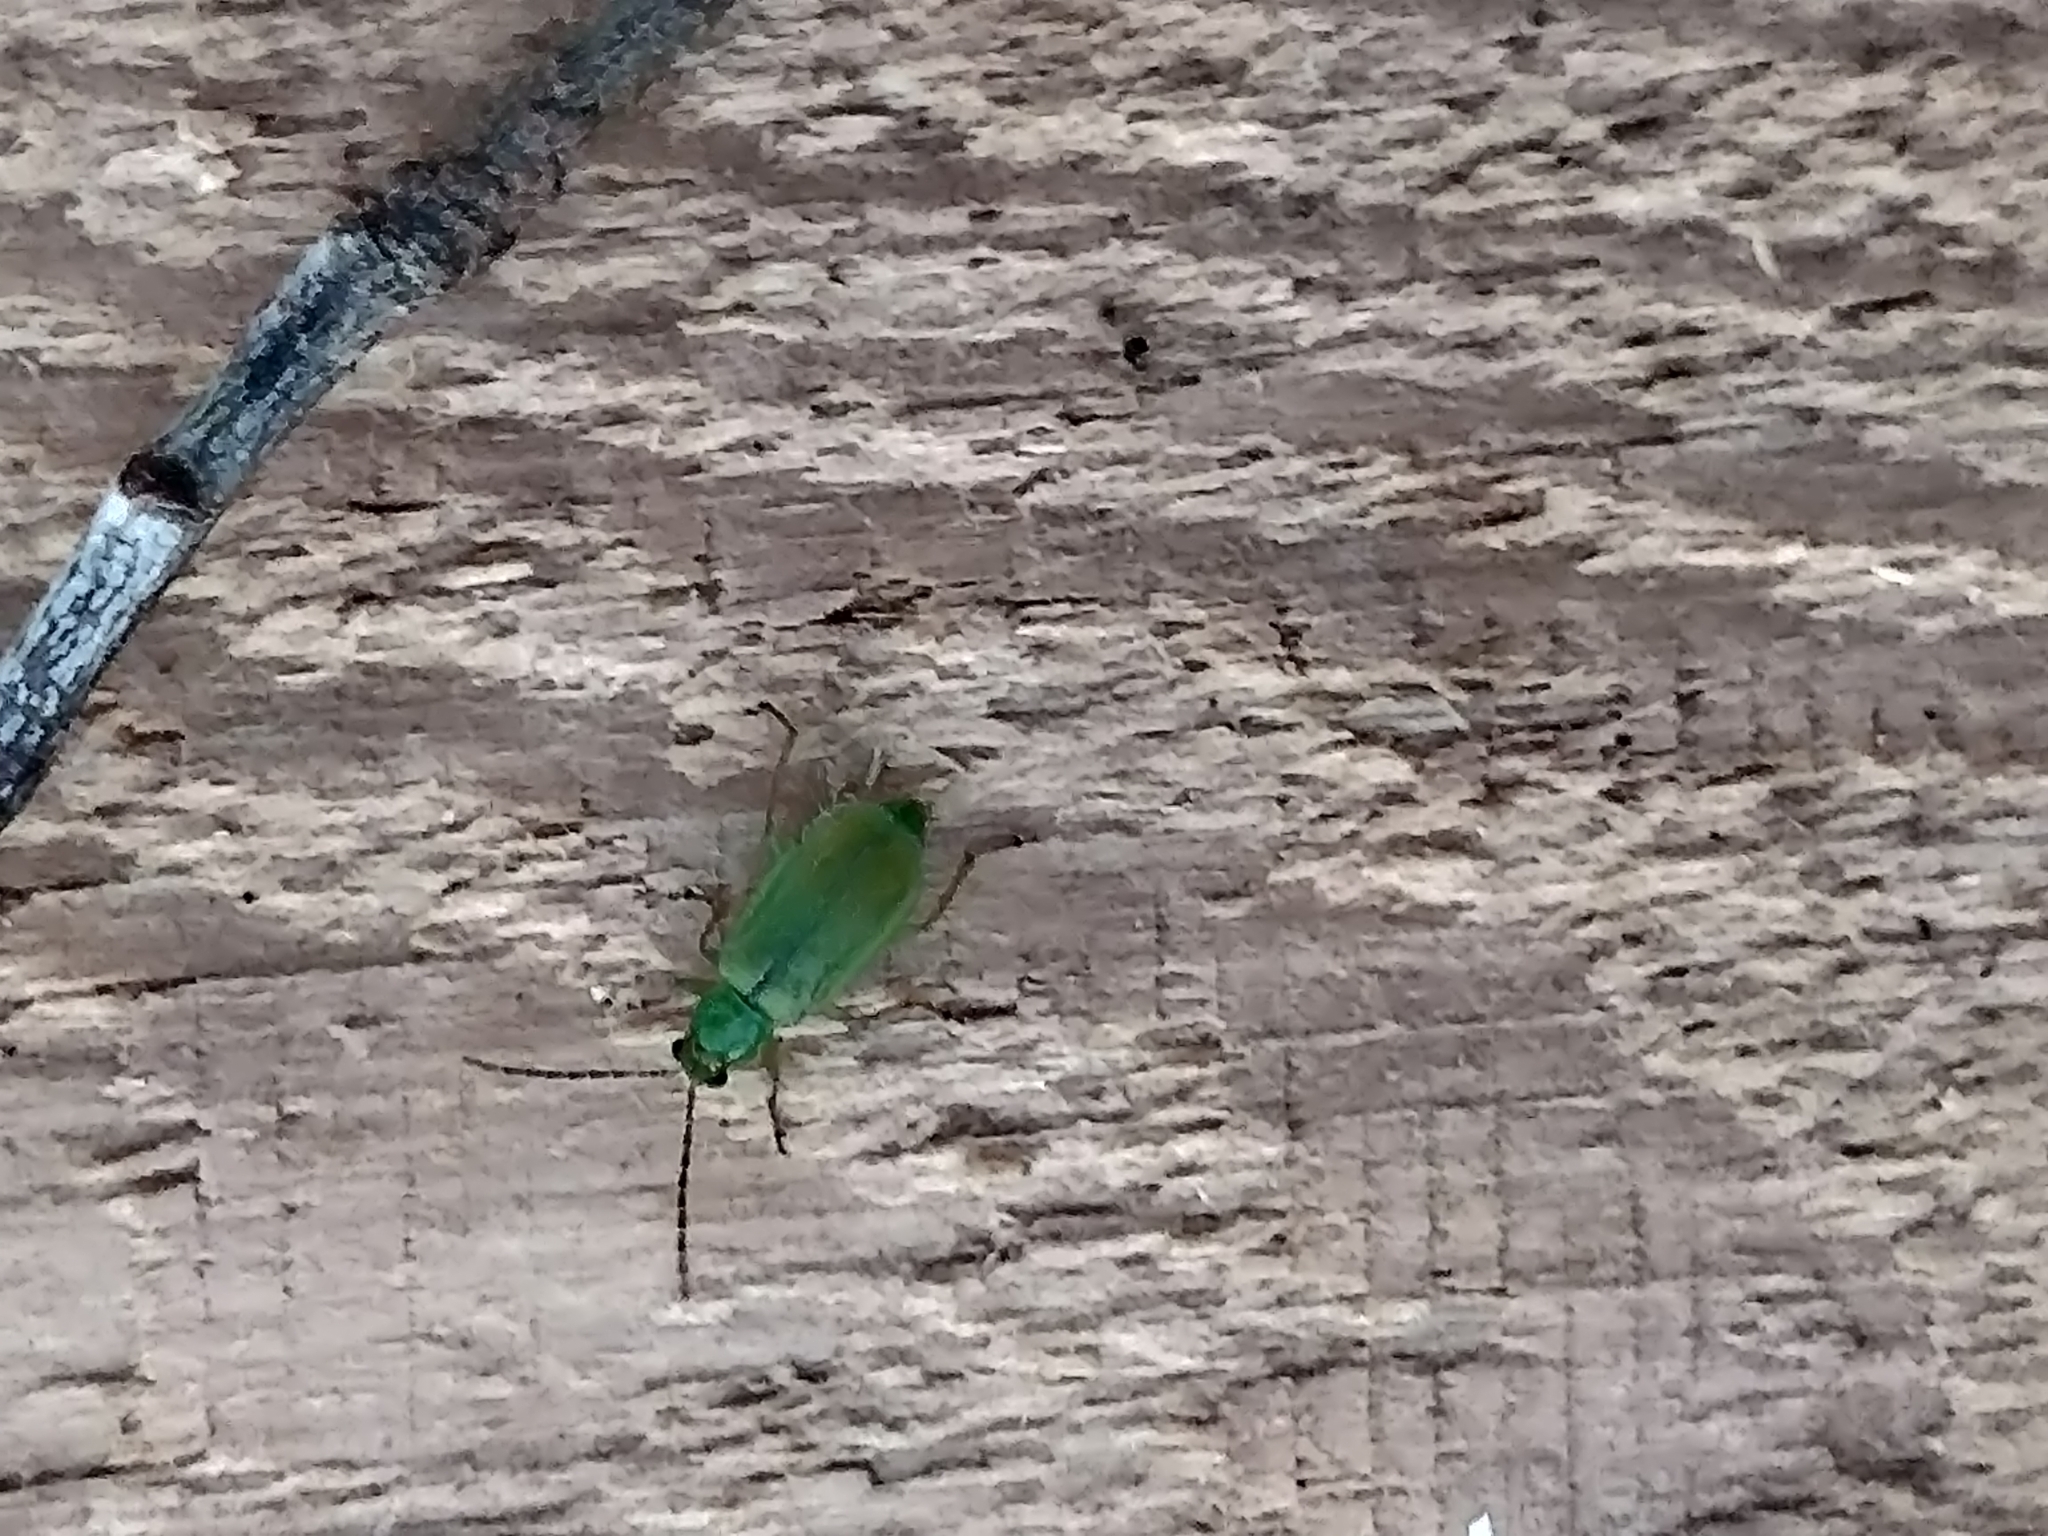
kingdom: Animalia
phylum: Arthropoda
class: Insecta
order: Coleoptera
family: Chrysomelidae
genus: Diabrotica
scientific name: Diabrotica barberi
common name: Northern corn rootworm
